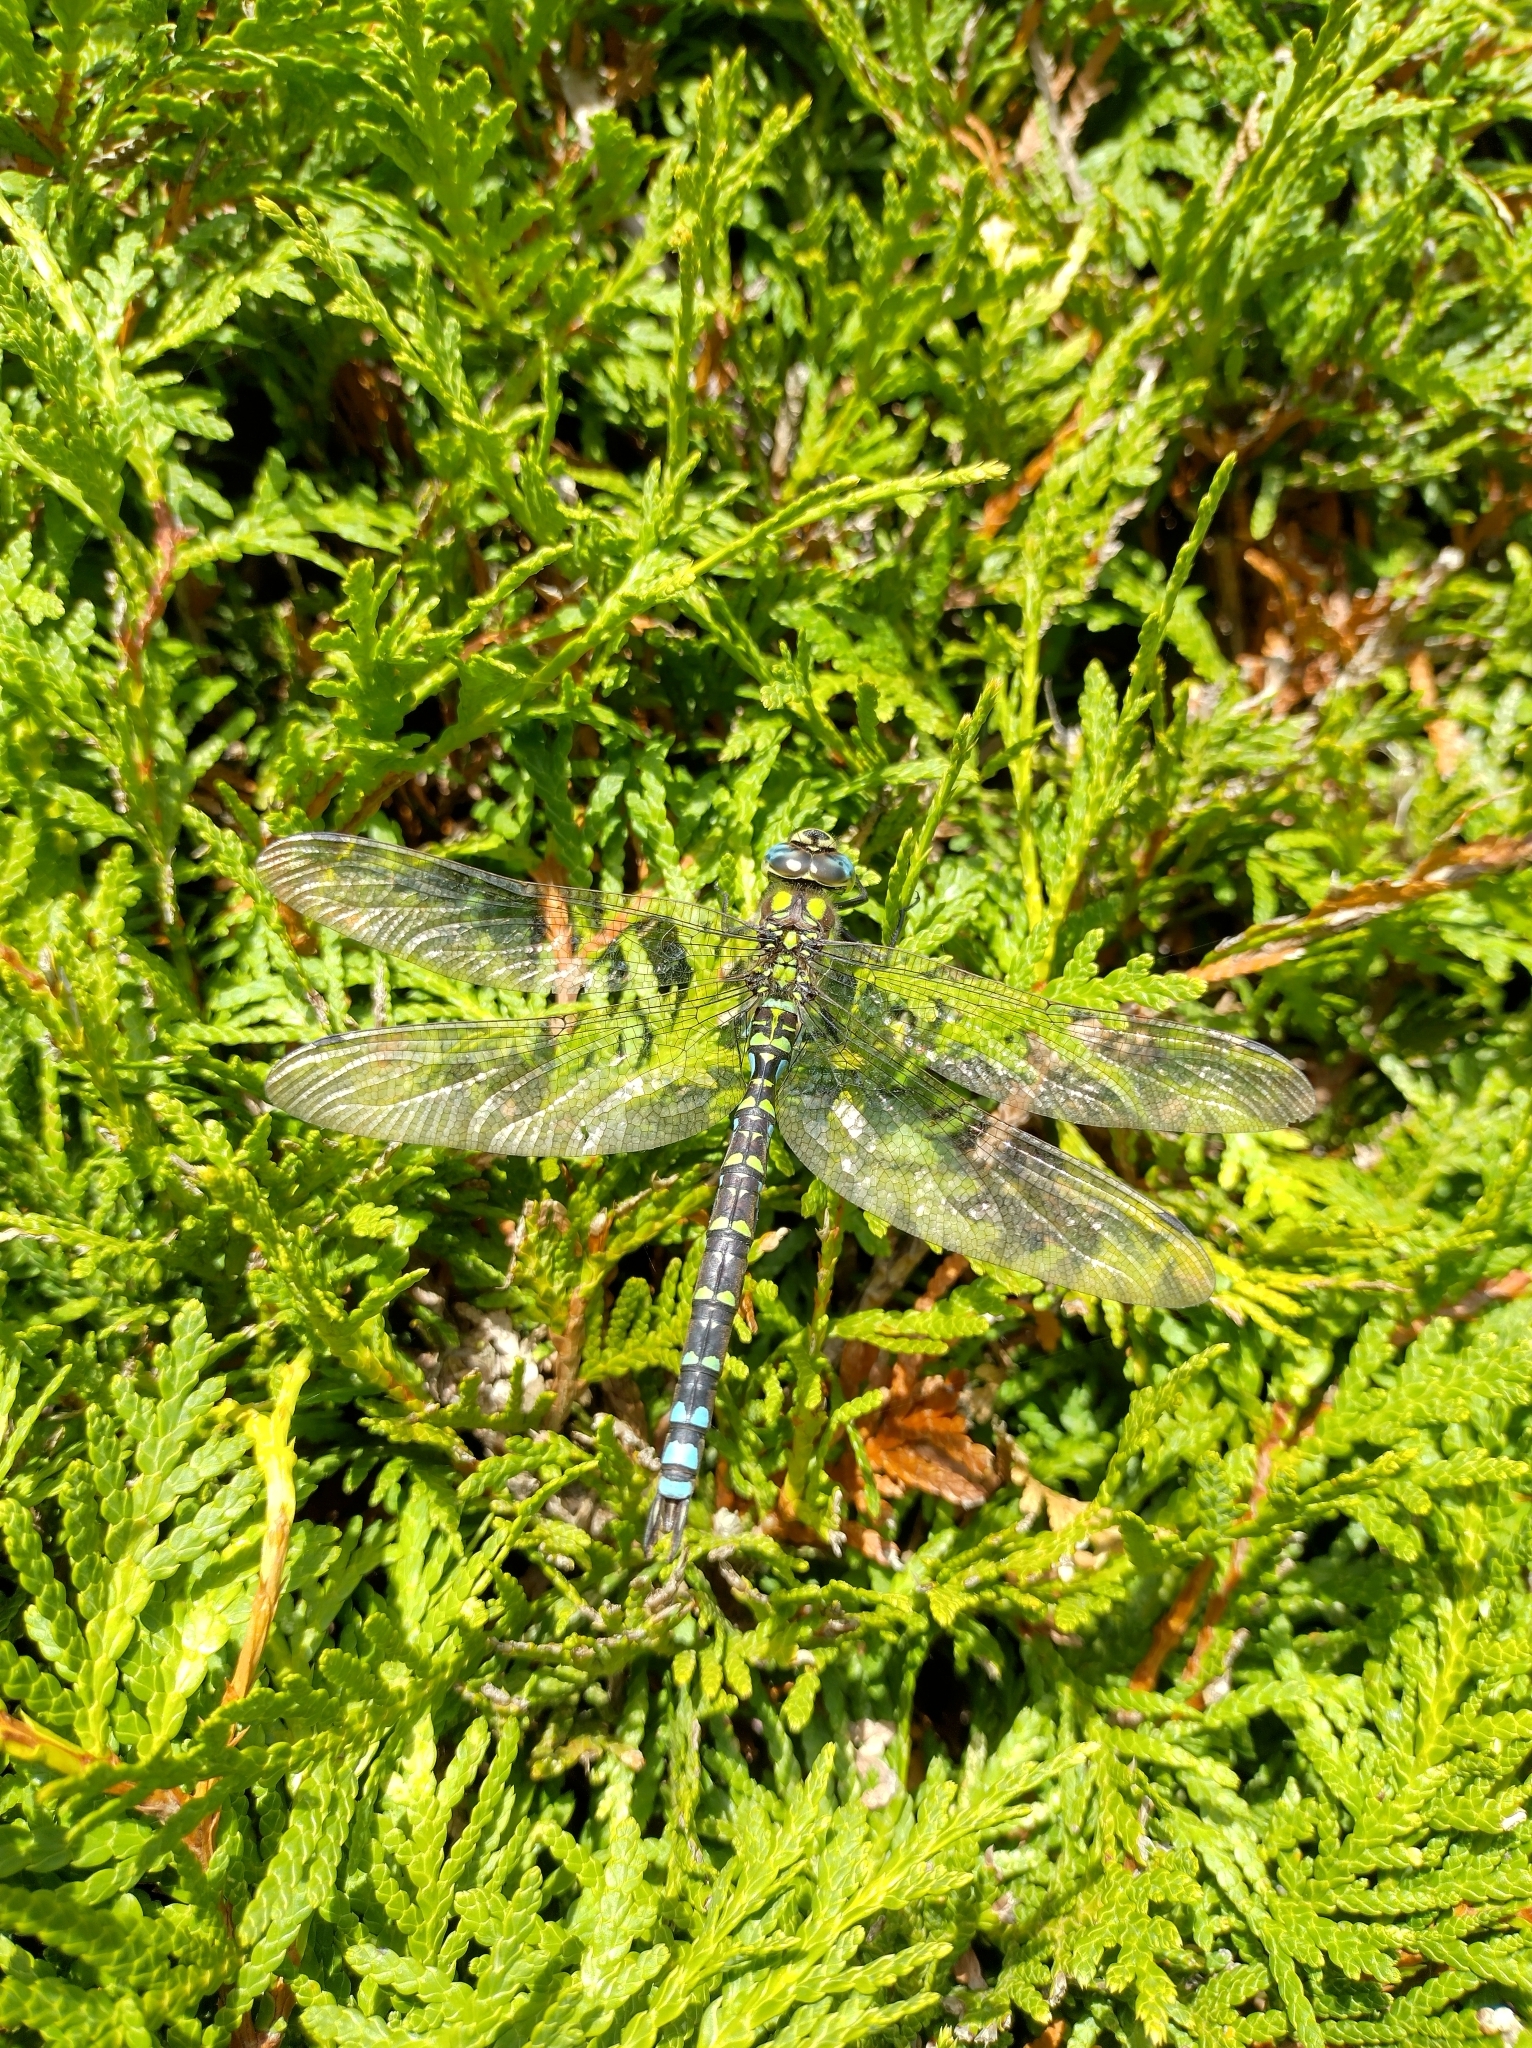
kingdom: Animalia
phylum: Arthropoda
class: Insecta
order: Odonata
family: Aeshnidae
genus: Aeshna
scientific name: Aeshna cyanea
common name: Southern hawker
